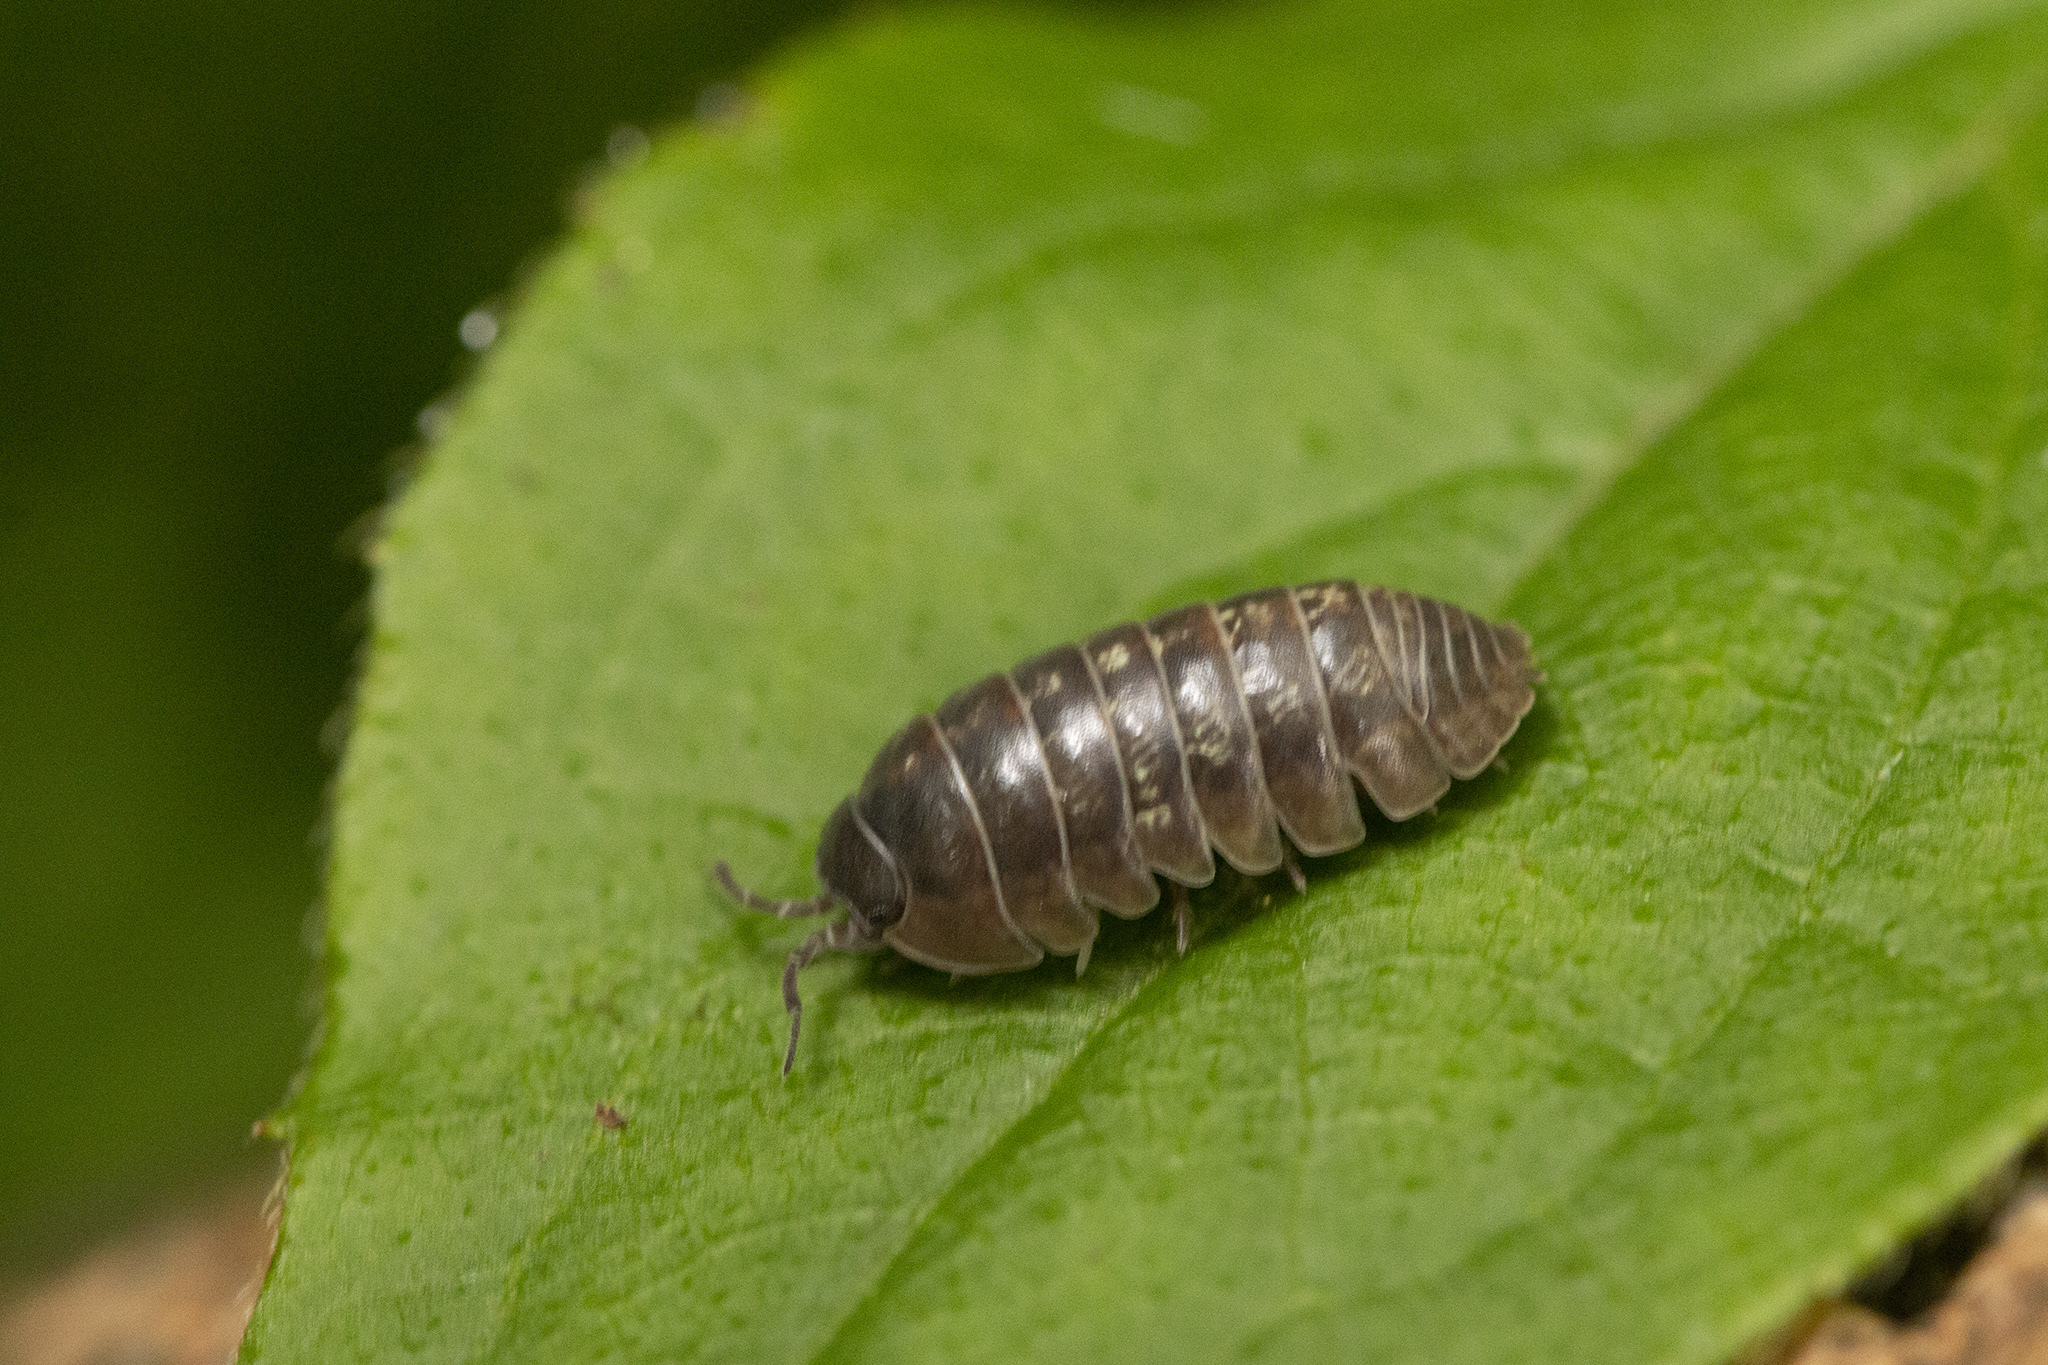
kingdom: Animalia
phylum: Arthropoda
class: Malacostraca
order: Isopoda
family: Armadillidiidae
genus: Armadillidium
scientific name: Armadillidium vulgare
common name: Common pill woodlouse
